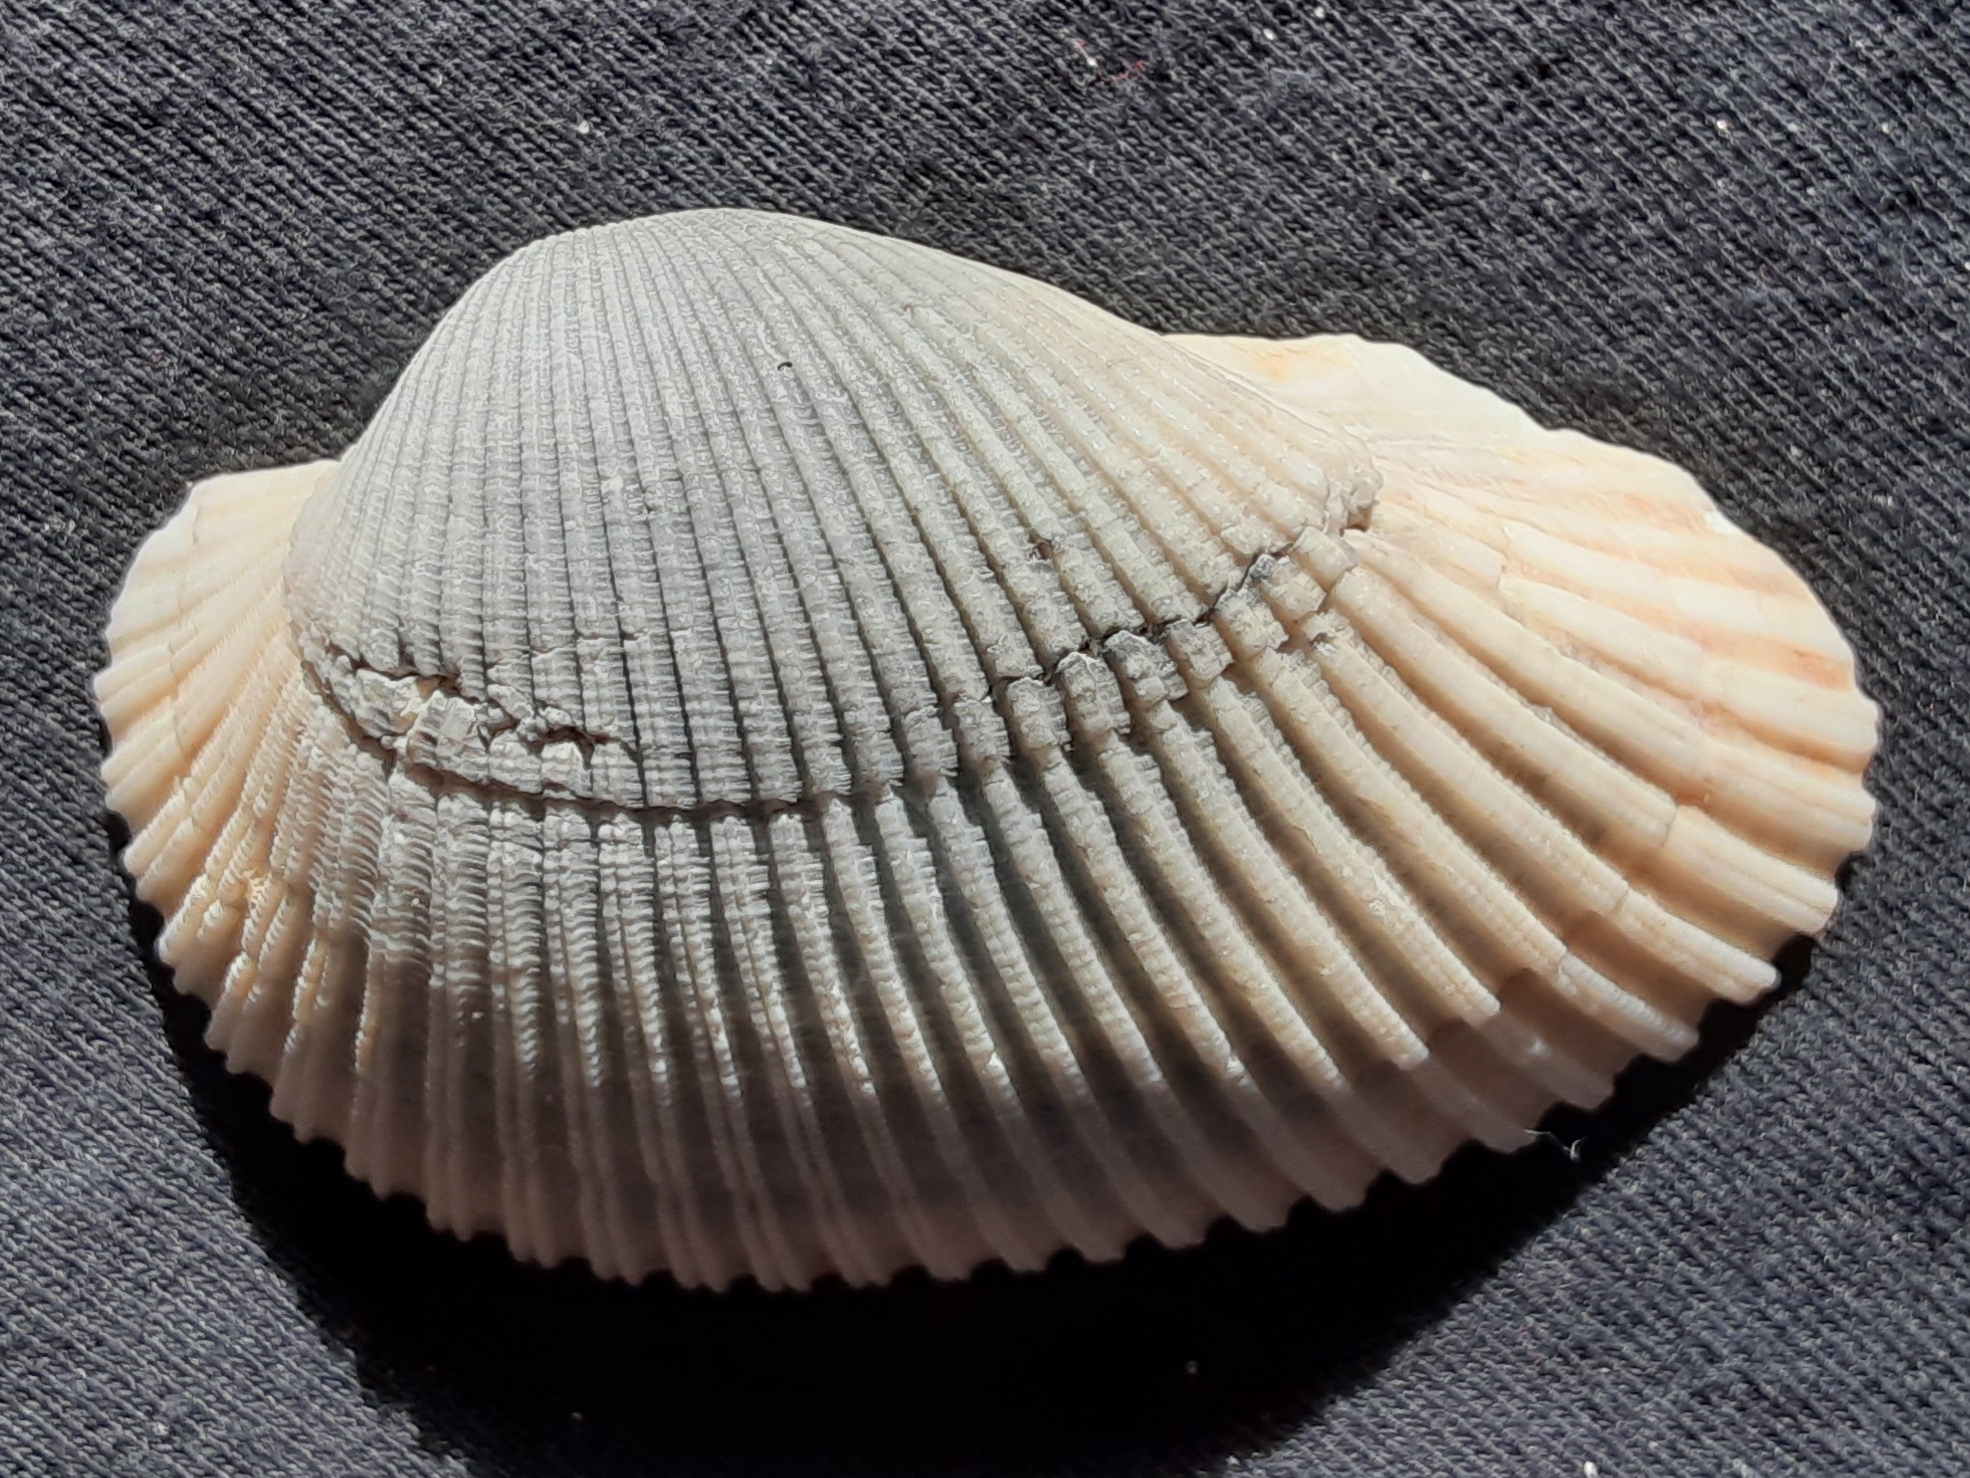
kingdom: Animalia
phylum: Mollusca
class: Bivalvia
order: Arcida
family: Arcidae
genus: Anadara
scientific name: Anadara secticostata
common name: Cut-ribbed ark
